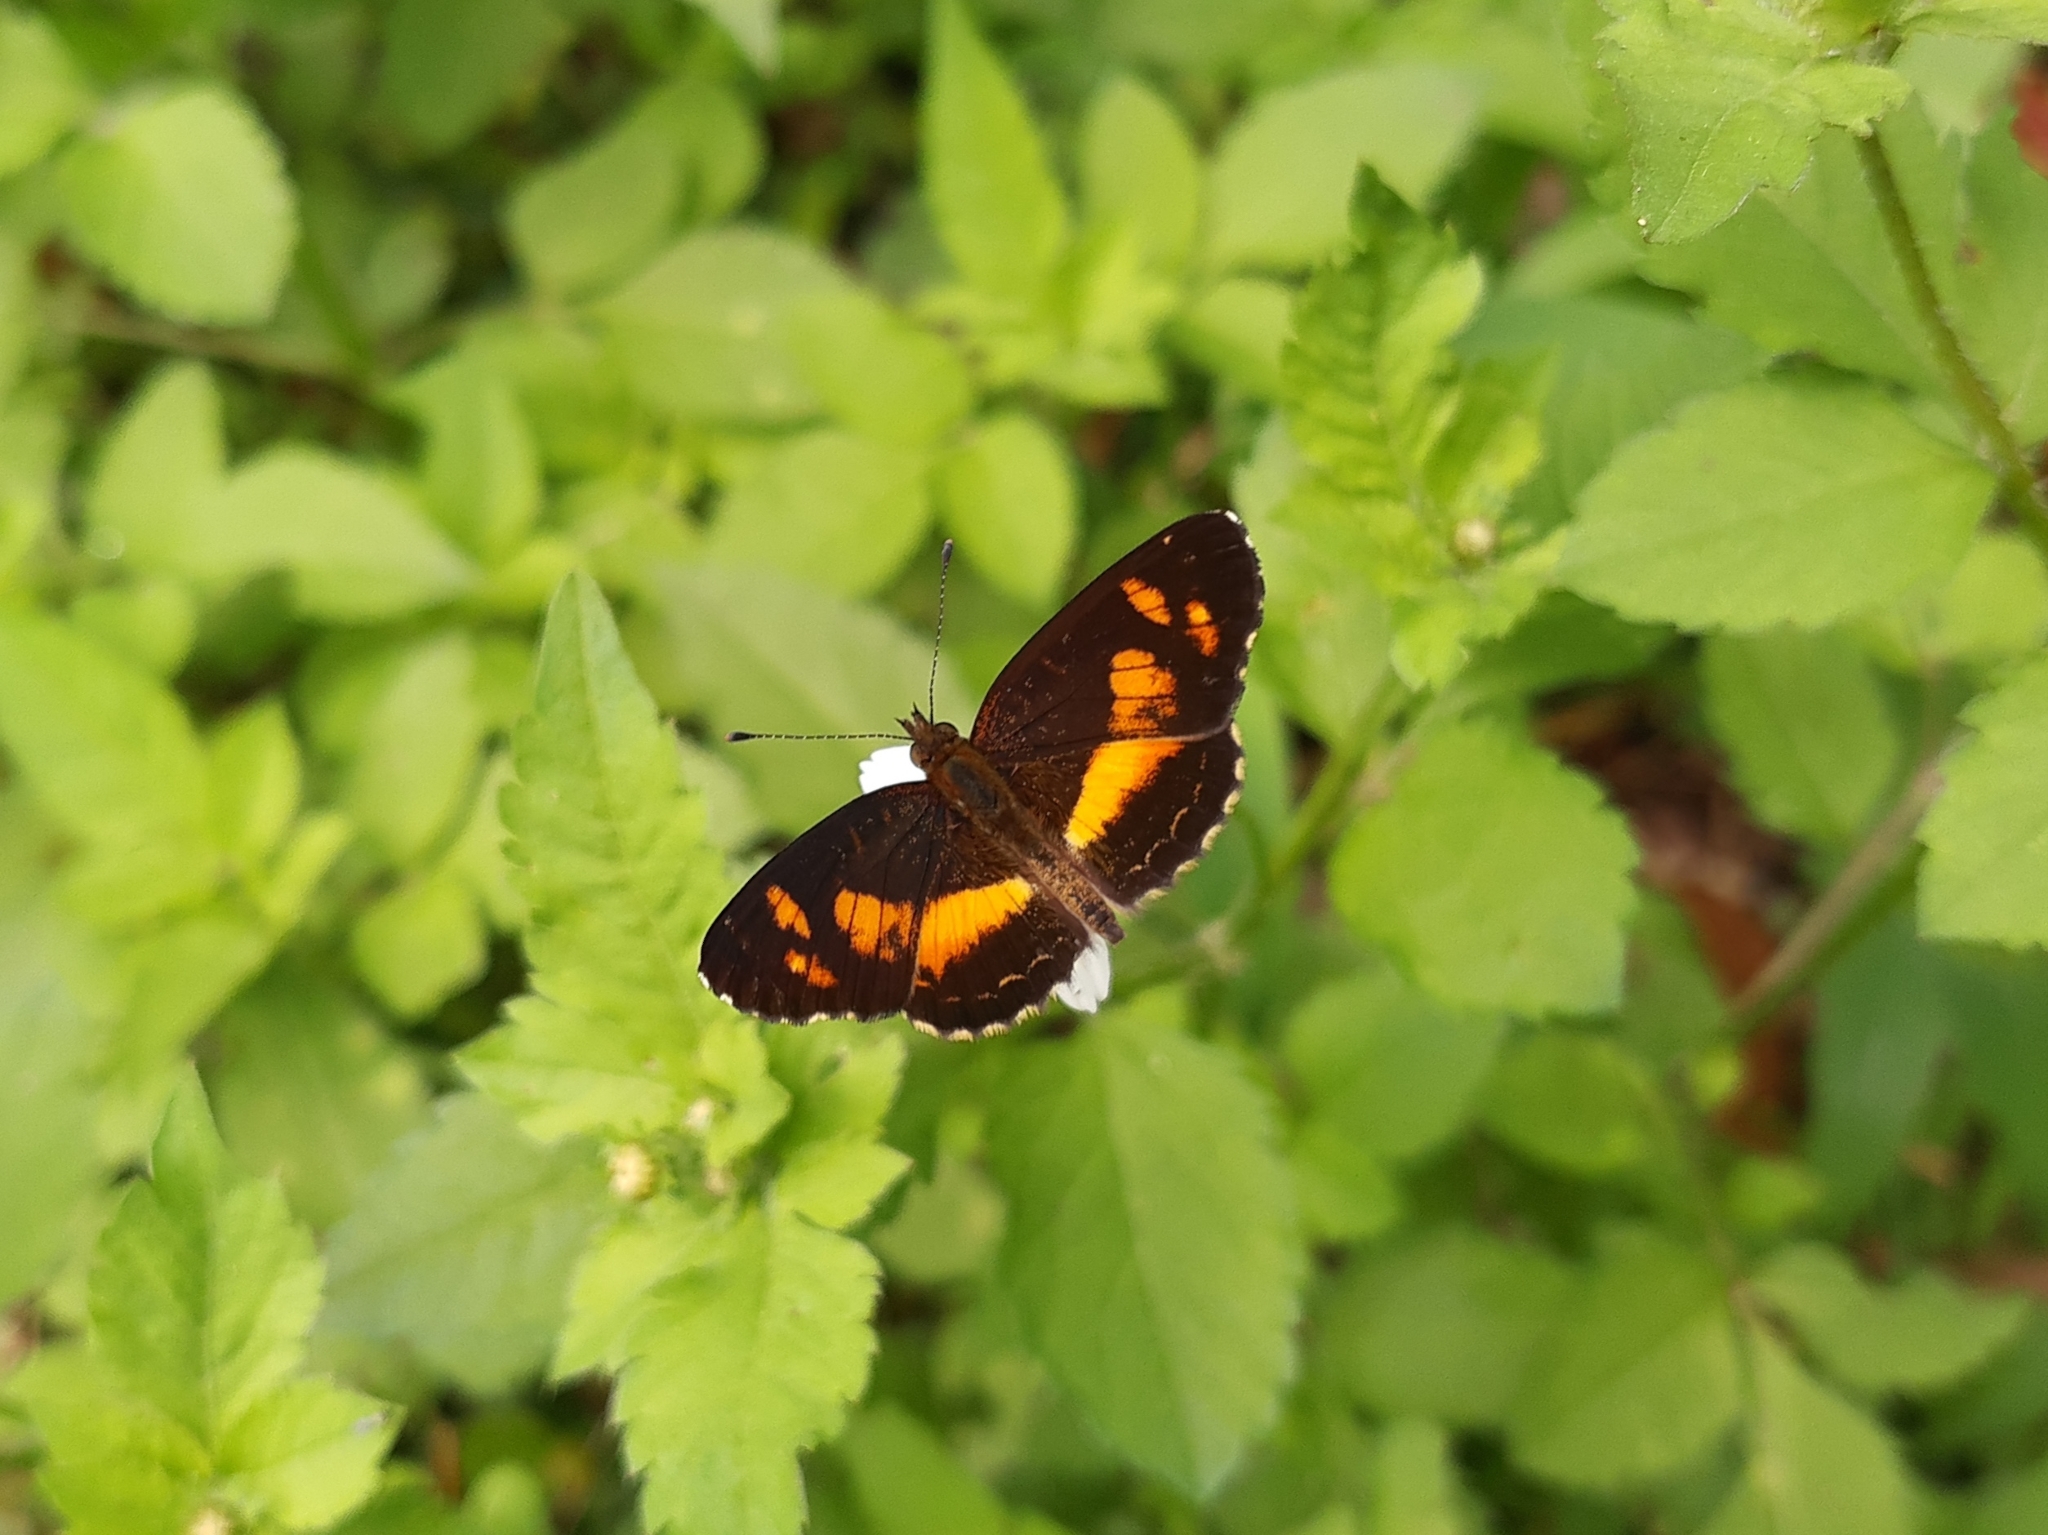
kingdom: Animalia
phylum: Arthropoda
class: Insecta
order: Lepidoptera
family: Nymphalidae
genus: Telenassa
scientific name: Telenassa teletusa
